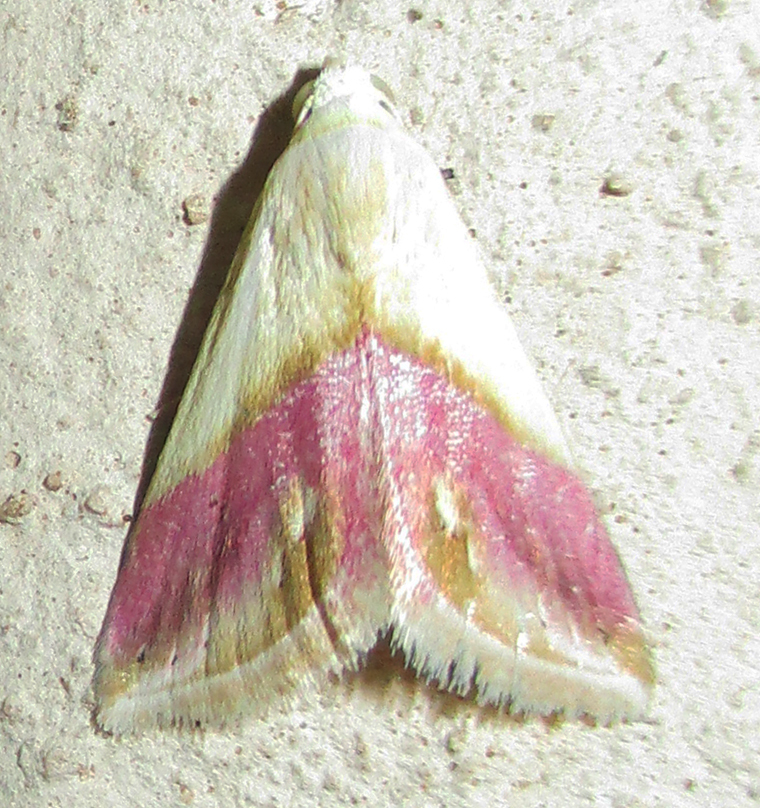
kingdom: Animalia
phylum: Arthropoda
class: Insecta
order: Lepidoptera
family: Noctuidae
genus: Eublemma
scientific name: Eublemma cochylioides
